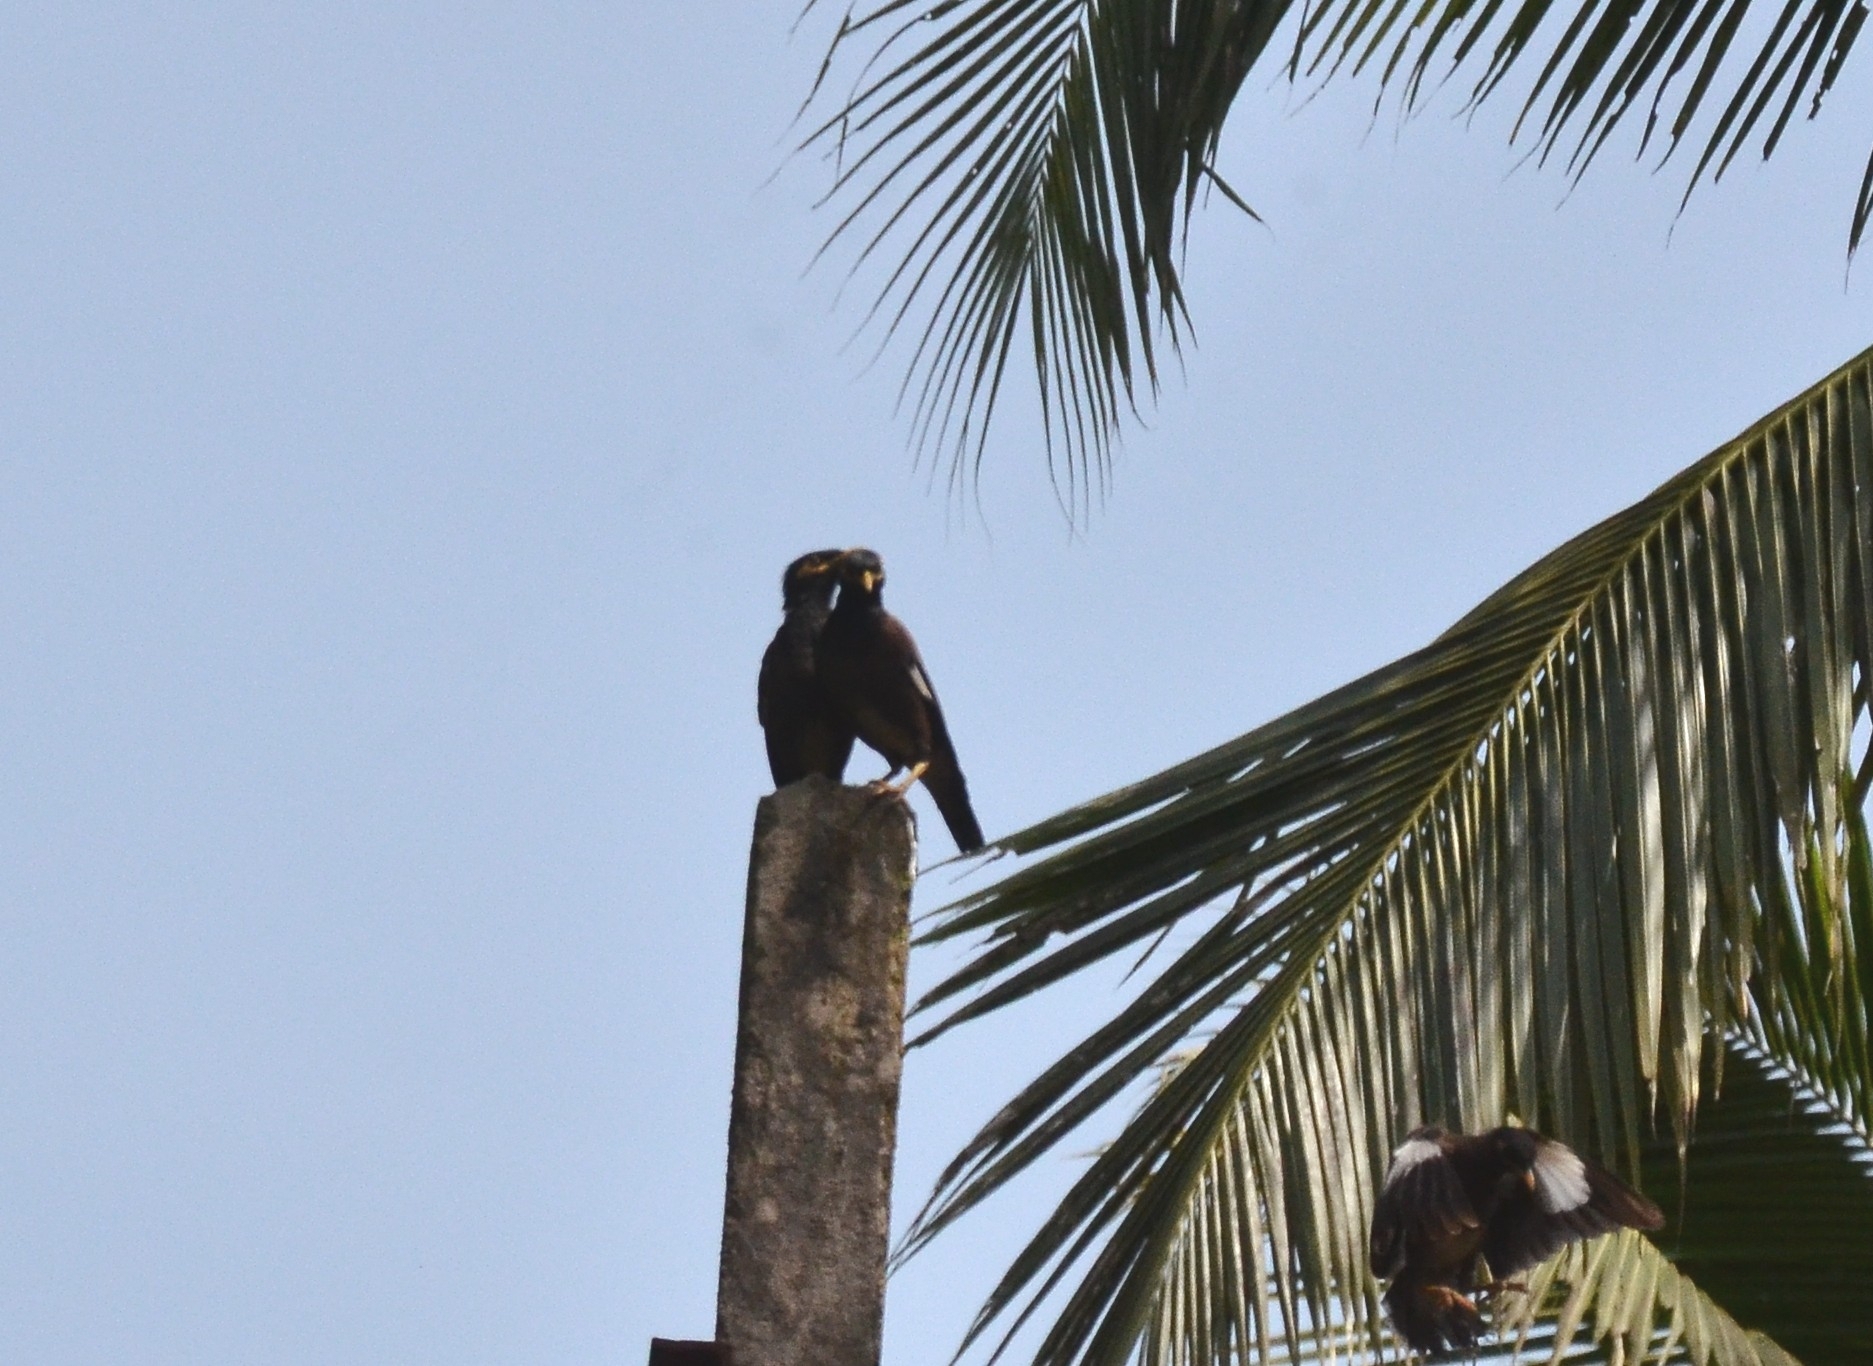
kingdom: Animalia
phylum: Chordata
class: Aves
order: Passeriformes
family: Sturnidae
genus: Acridotheres
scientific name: Acridotheres tristis
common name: Common myna
